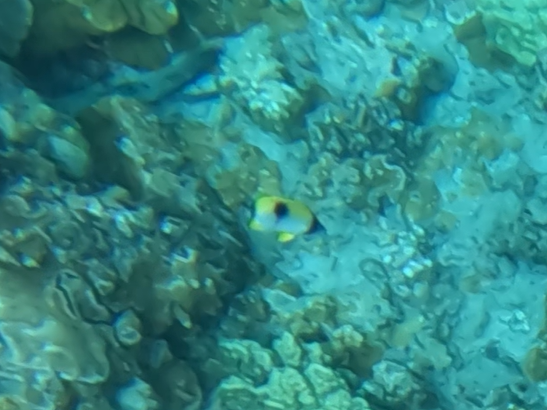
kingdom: Animalia
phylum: Chordata
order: Perciformes
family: Chaetodontidae
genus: Chaetodon
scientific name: Chaetodon unimaculatus
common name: Teardrop butterflyfish
